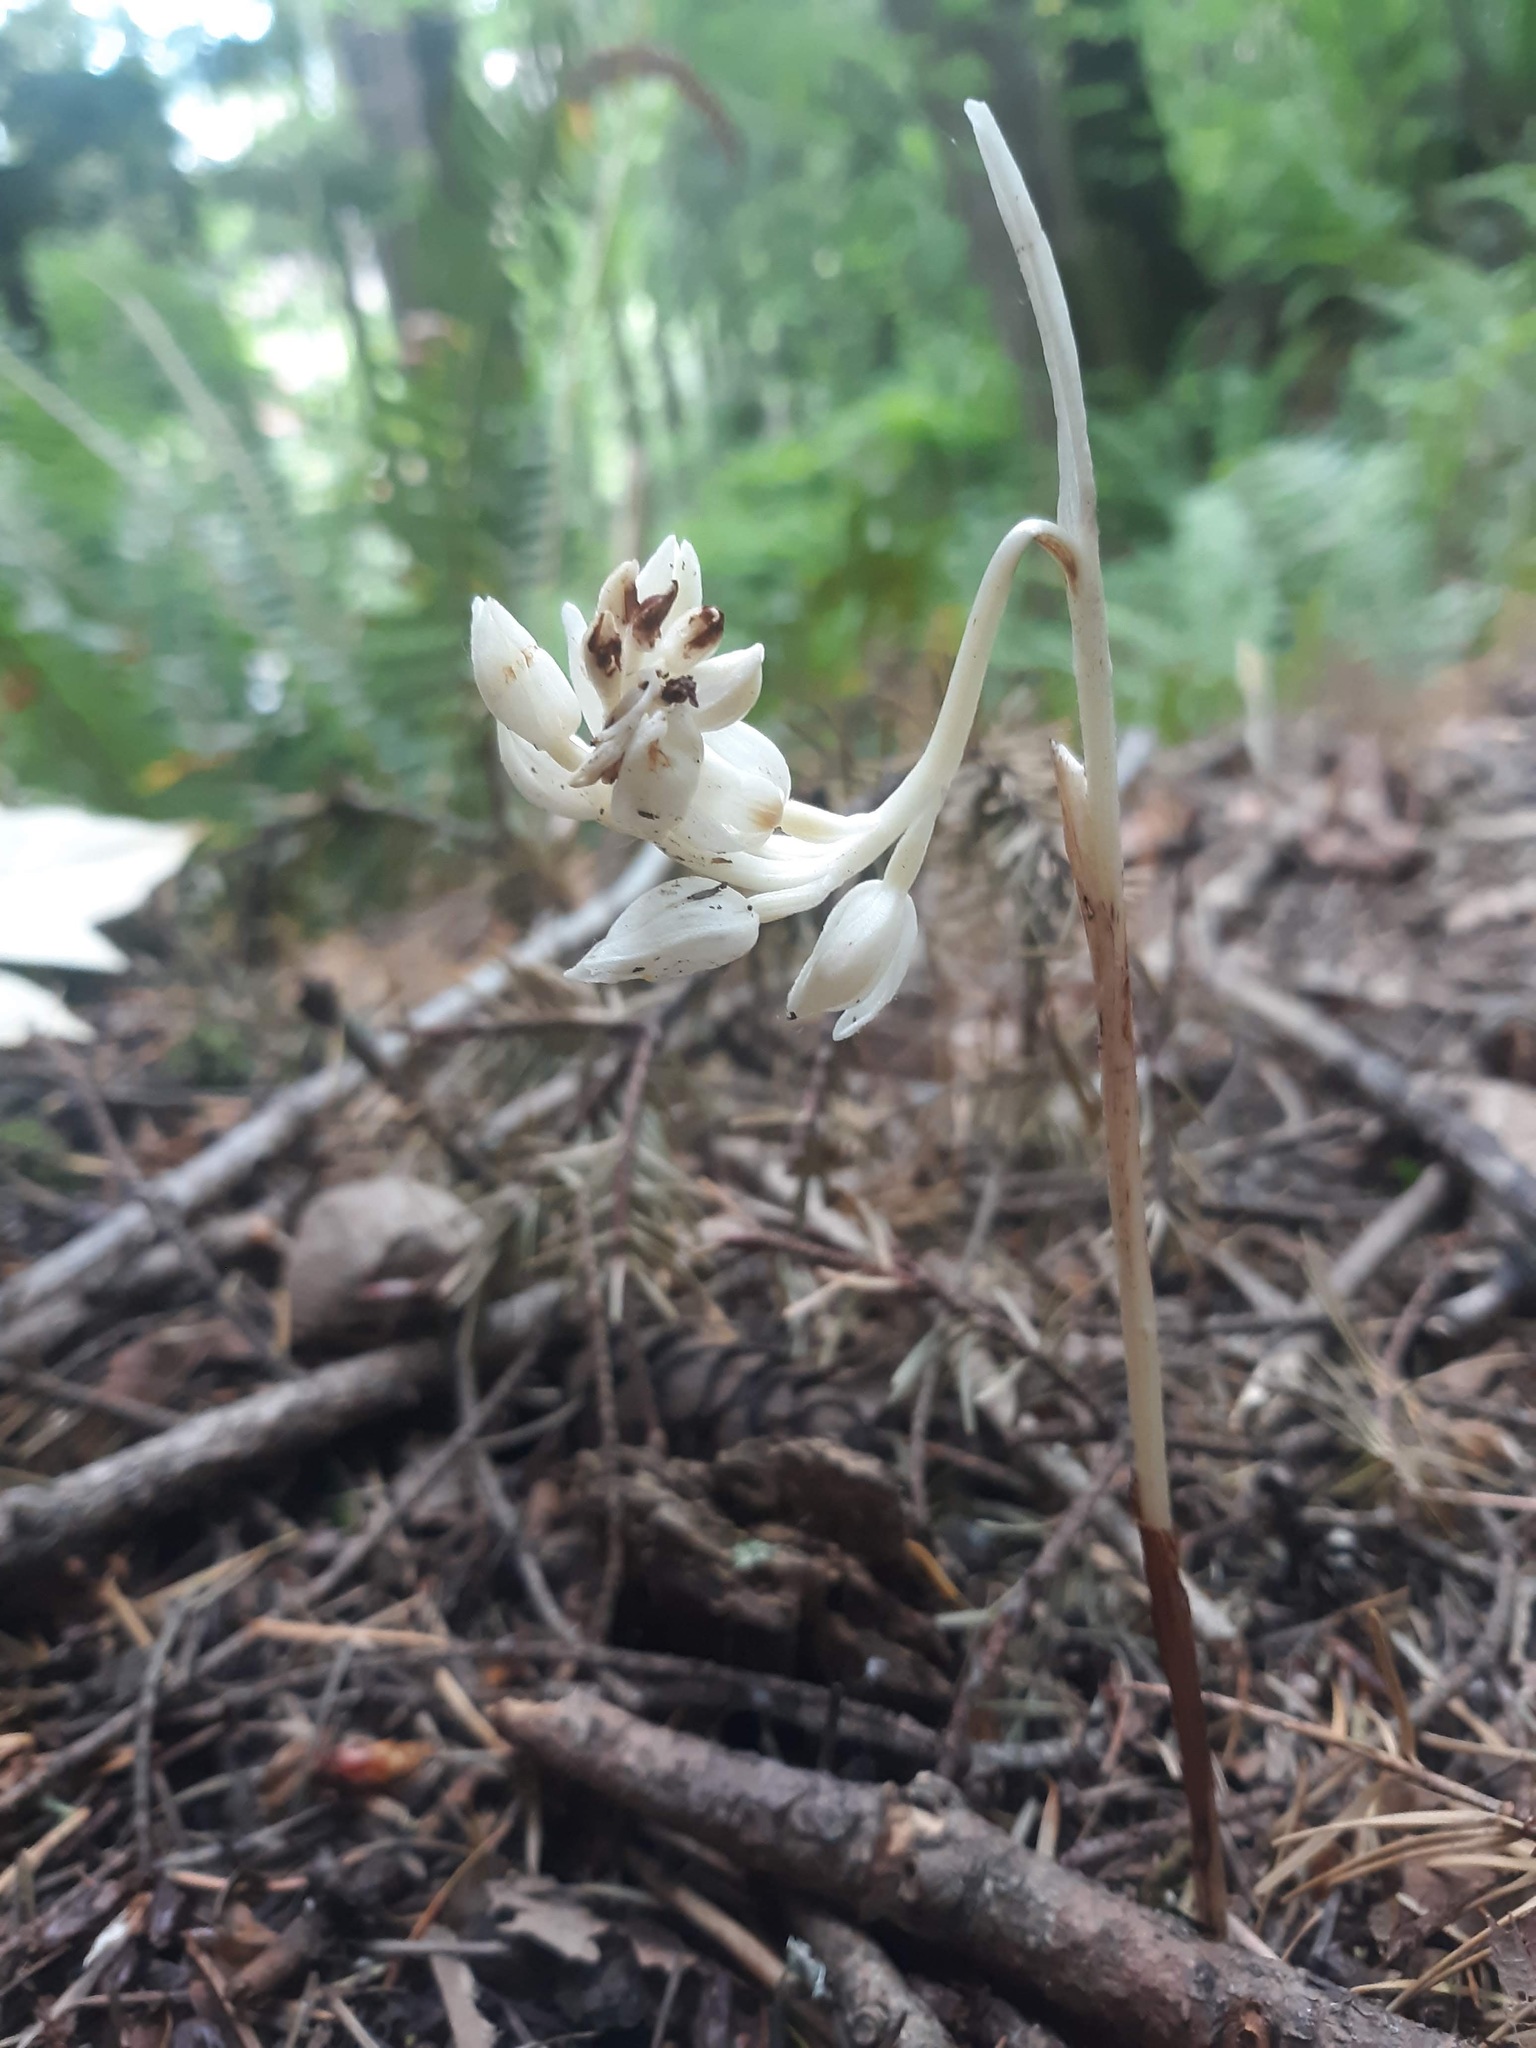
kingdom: Plantae
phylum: Tracheophyta
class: Liliopsida
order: Asparagales
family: Orchidaceae
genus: Cephalanthera
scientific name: Cephalanthera austiniae
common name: Phantom orchid
